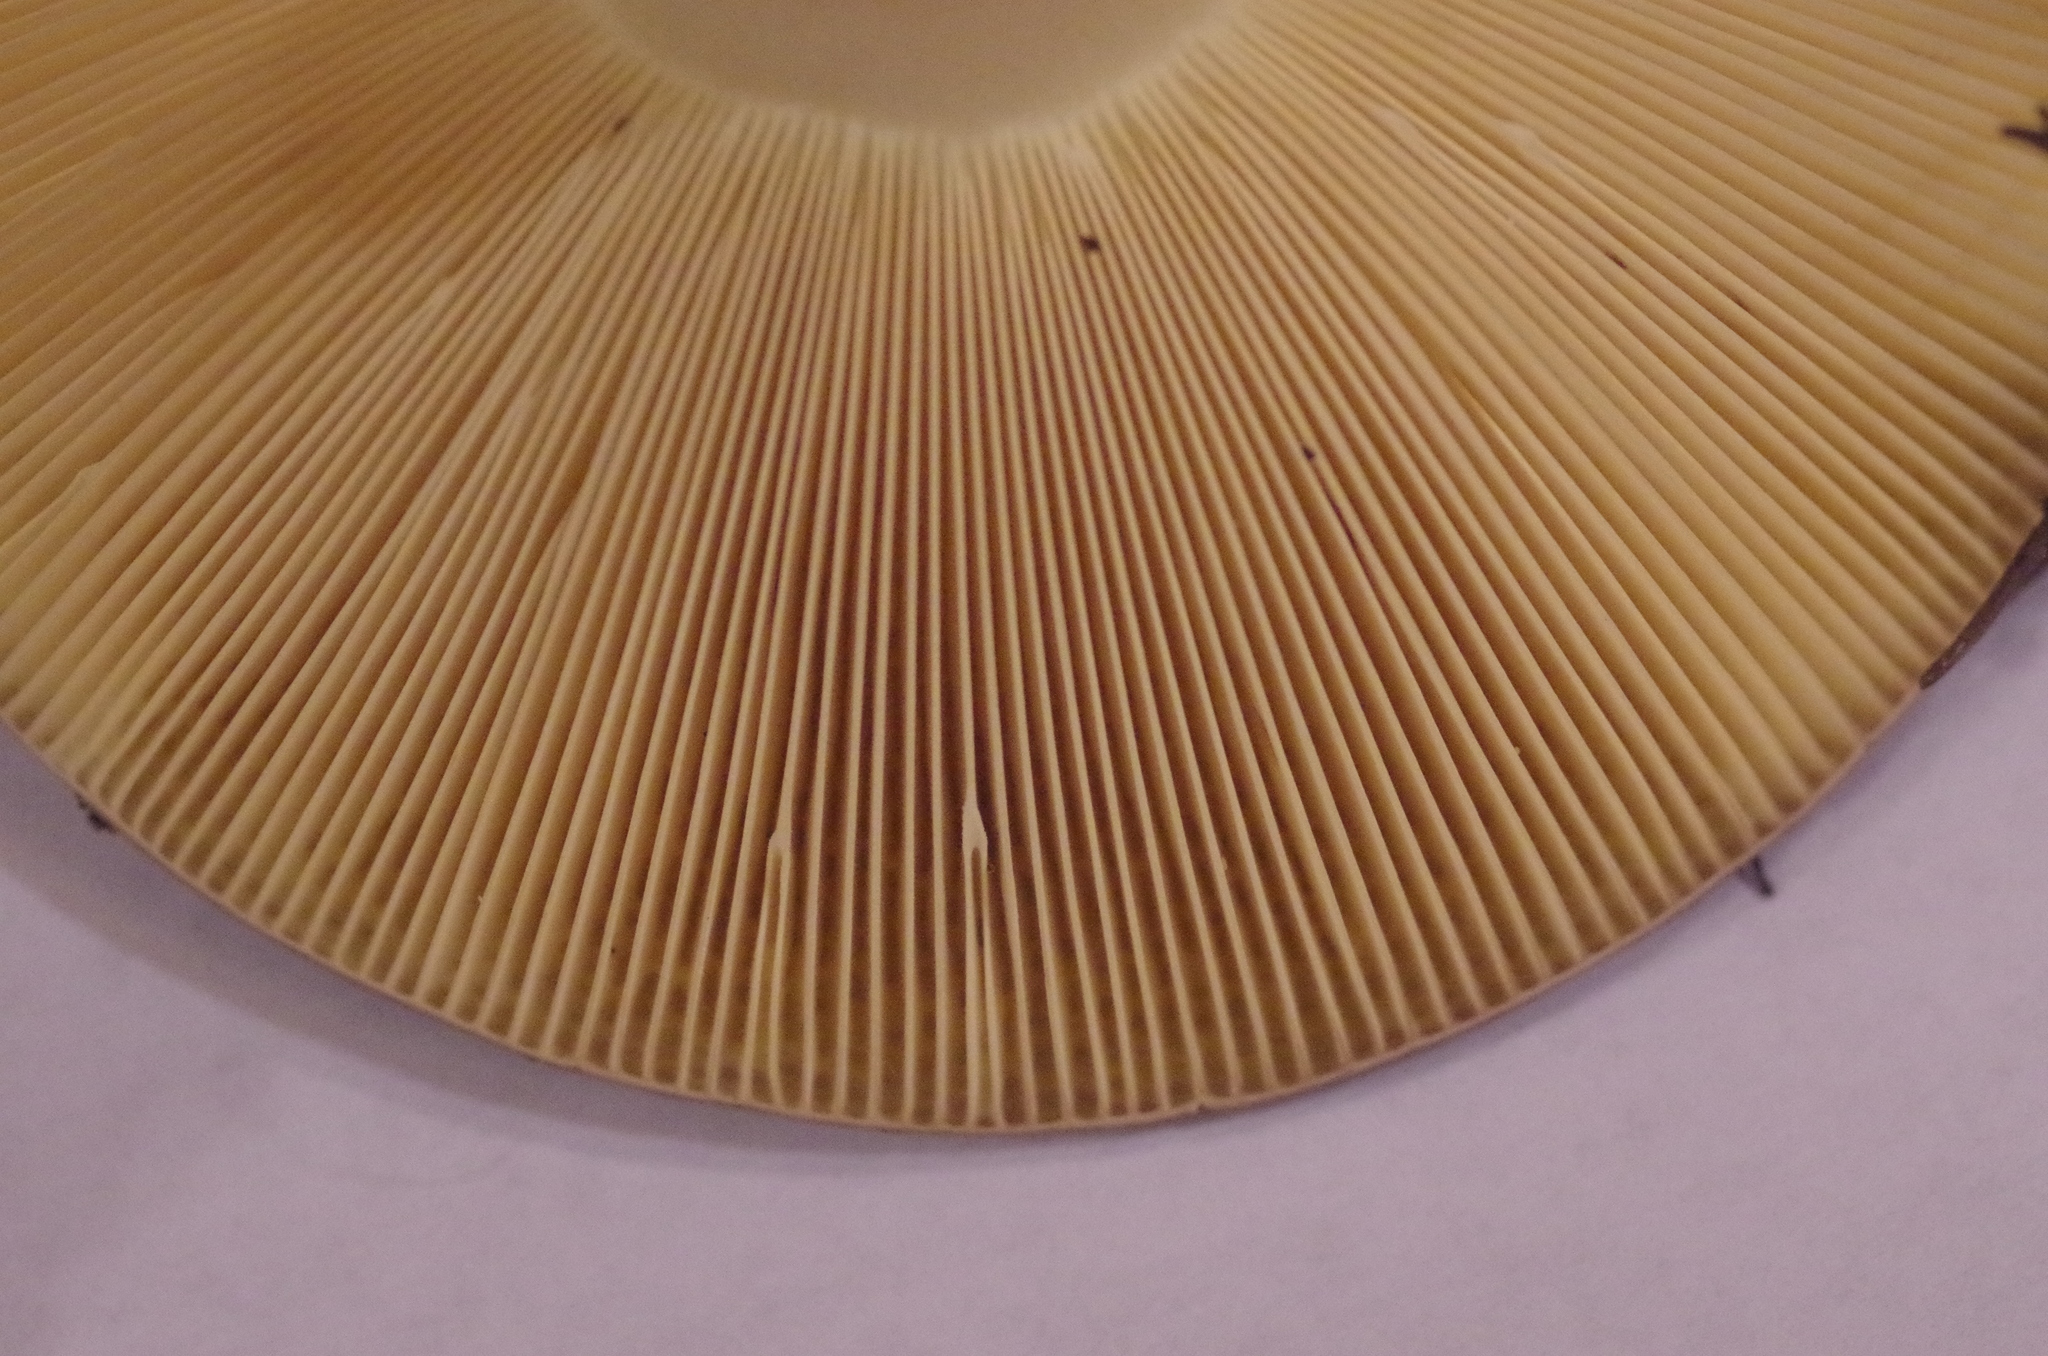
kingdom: Fungi
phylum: Basidiomycota
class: Agaricomycetes
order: Russulales
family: Russulaceae
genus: Russula
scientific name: Russula xerampelina
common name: Crab brittlegill
